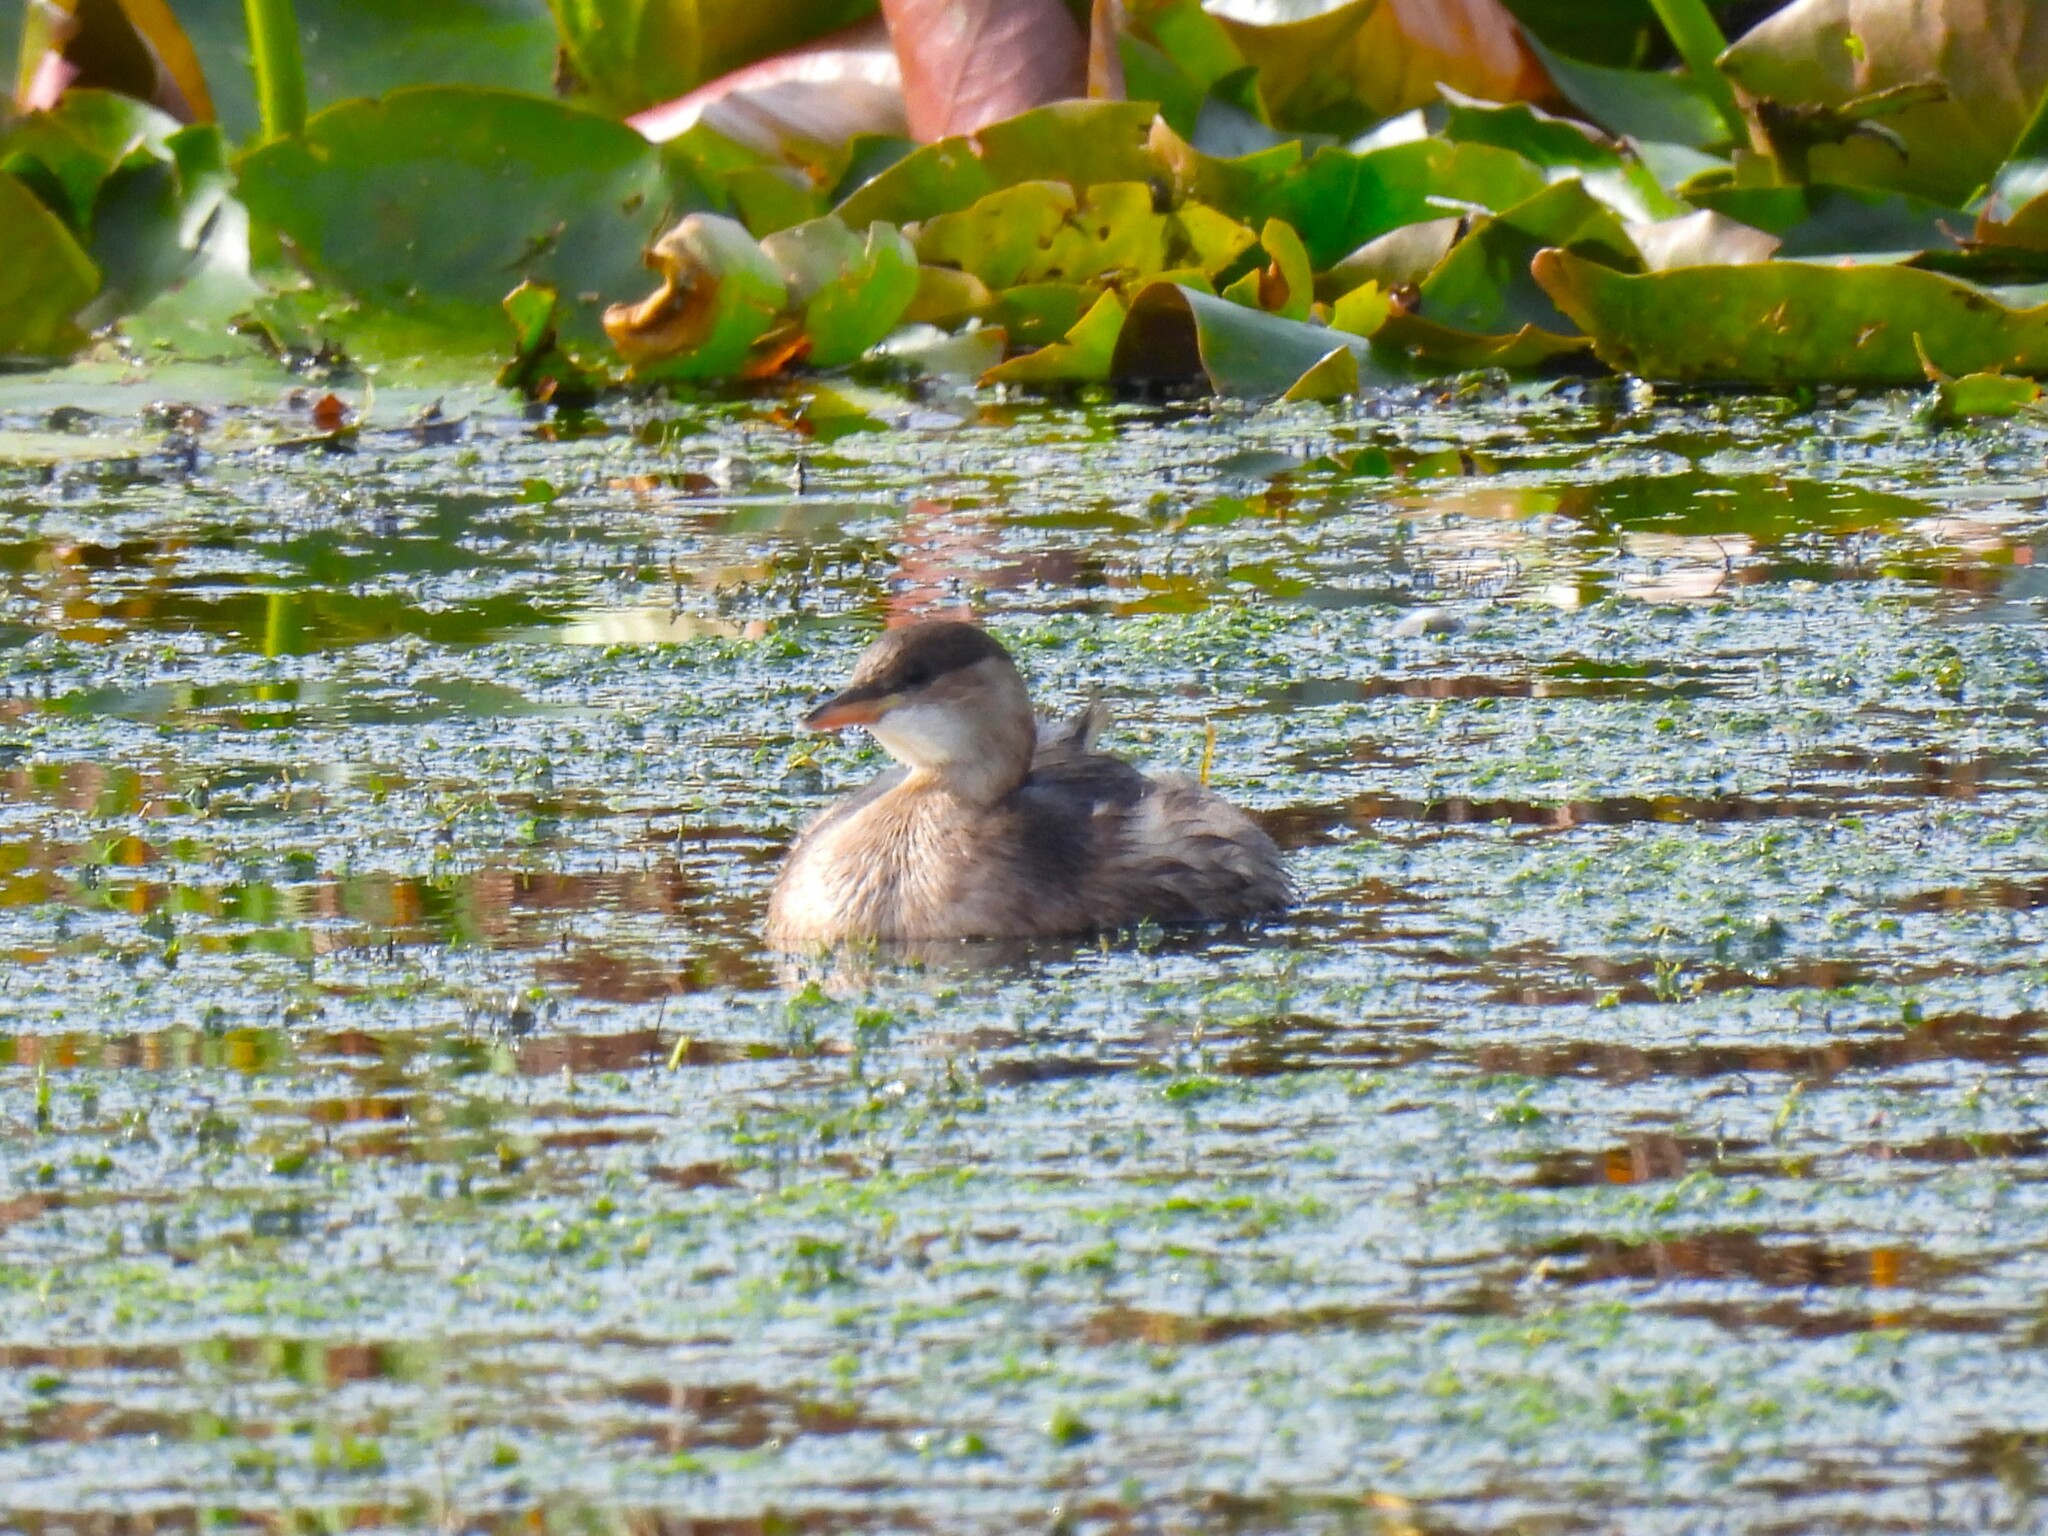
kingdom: Animalia
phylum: Chordata
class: Aves
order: Podicipediformes
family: Podicipedidae
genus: Tachybaptus
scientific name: Tachybaptus ruficollis
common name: Little grebe
